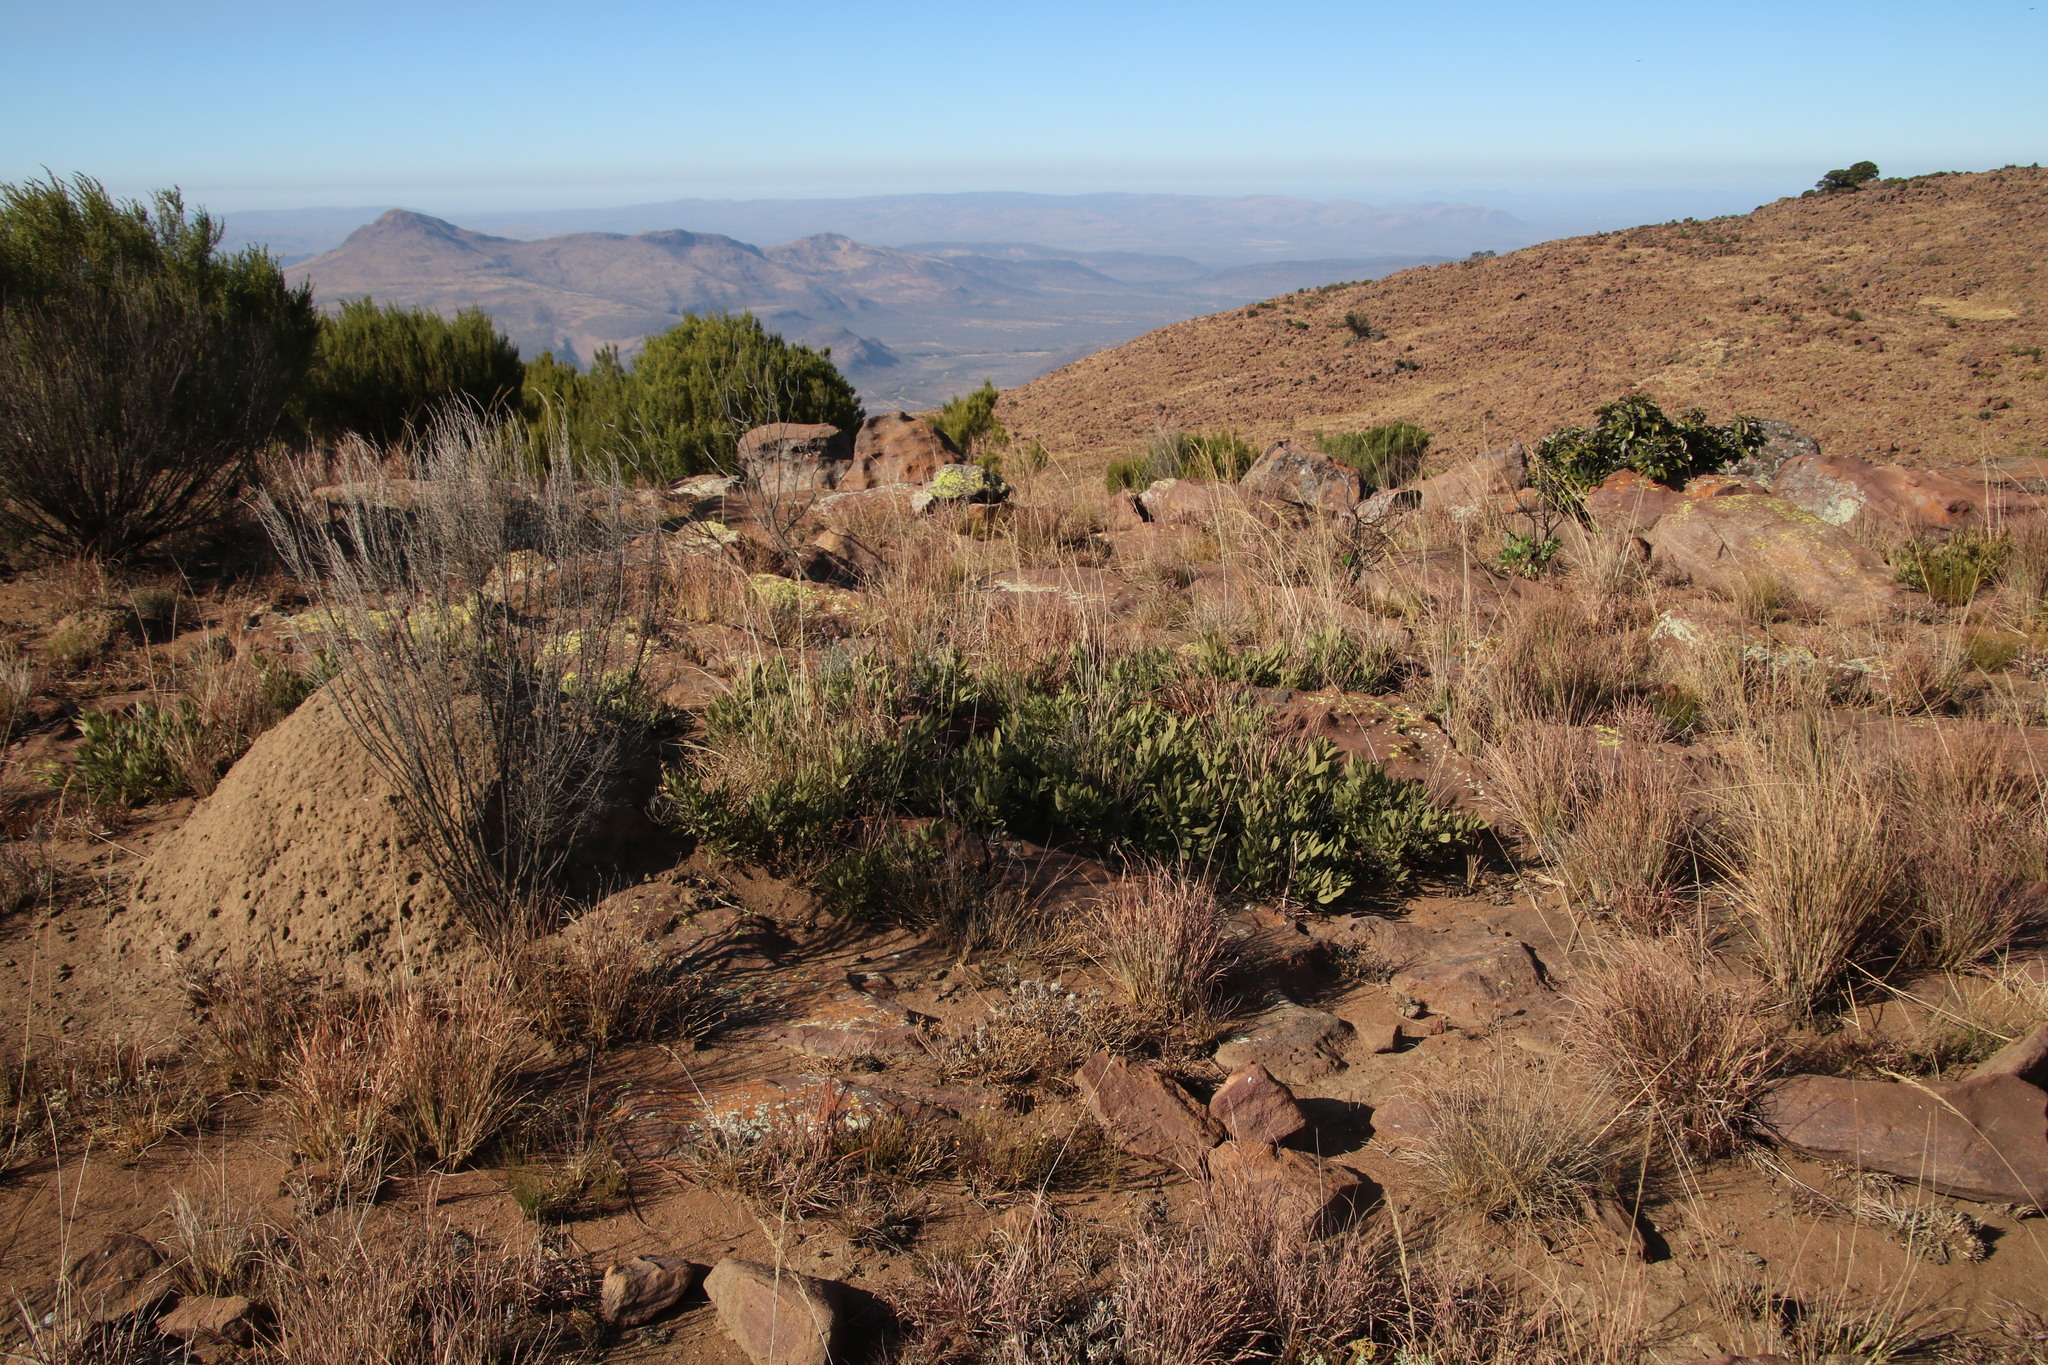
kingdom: Plantae
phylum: Tracheophyta
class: Magnoliopsida
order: Sapindales
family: Anacardiaceae
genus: Searsia
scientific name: Searsia magalismontana
